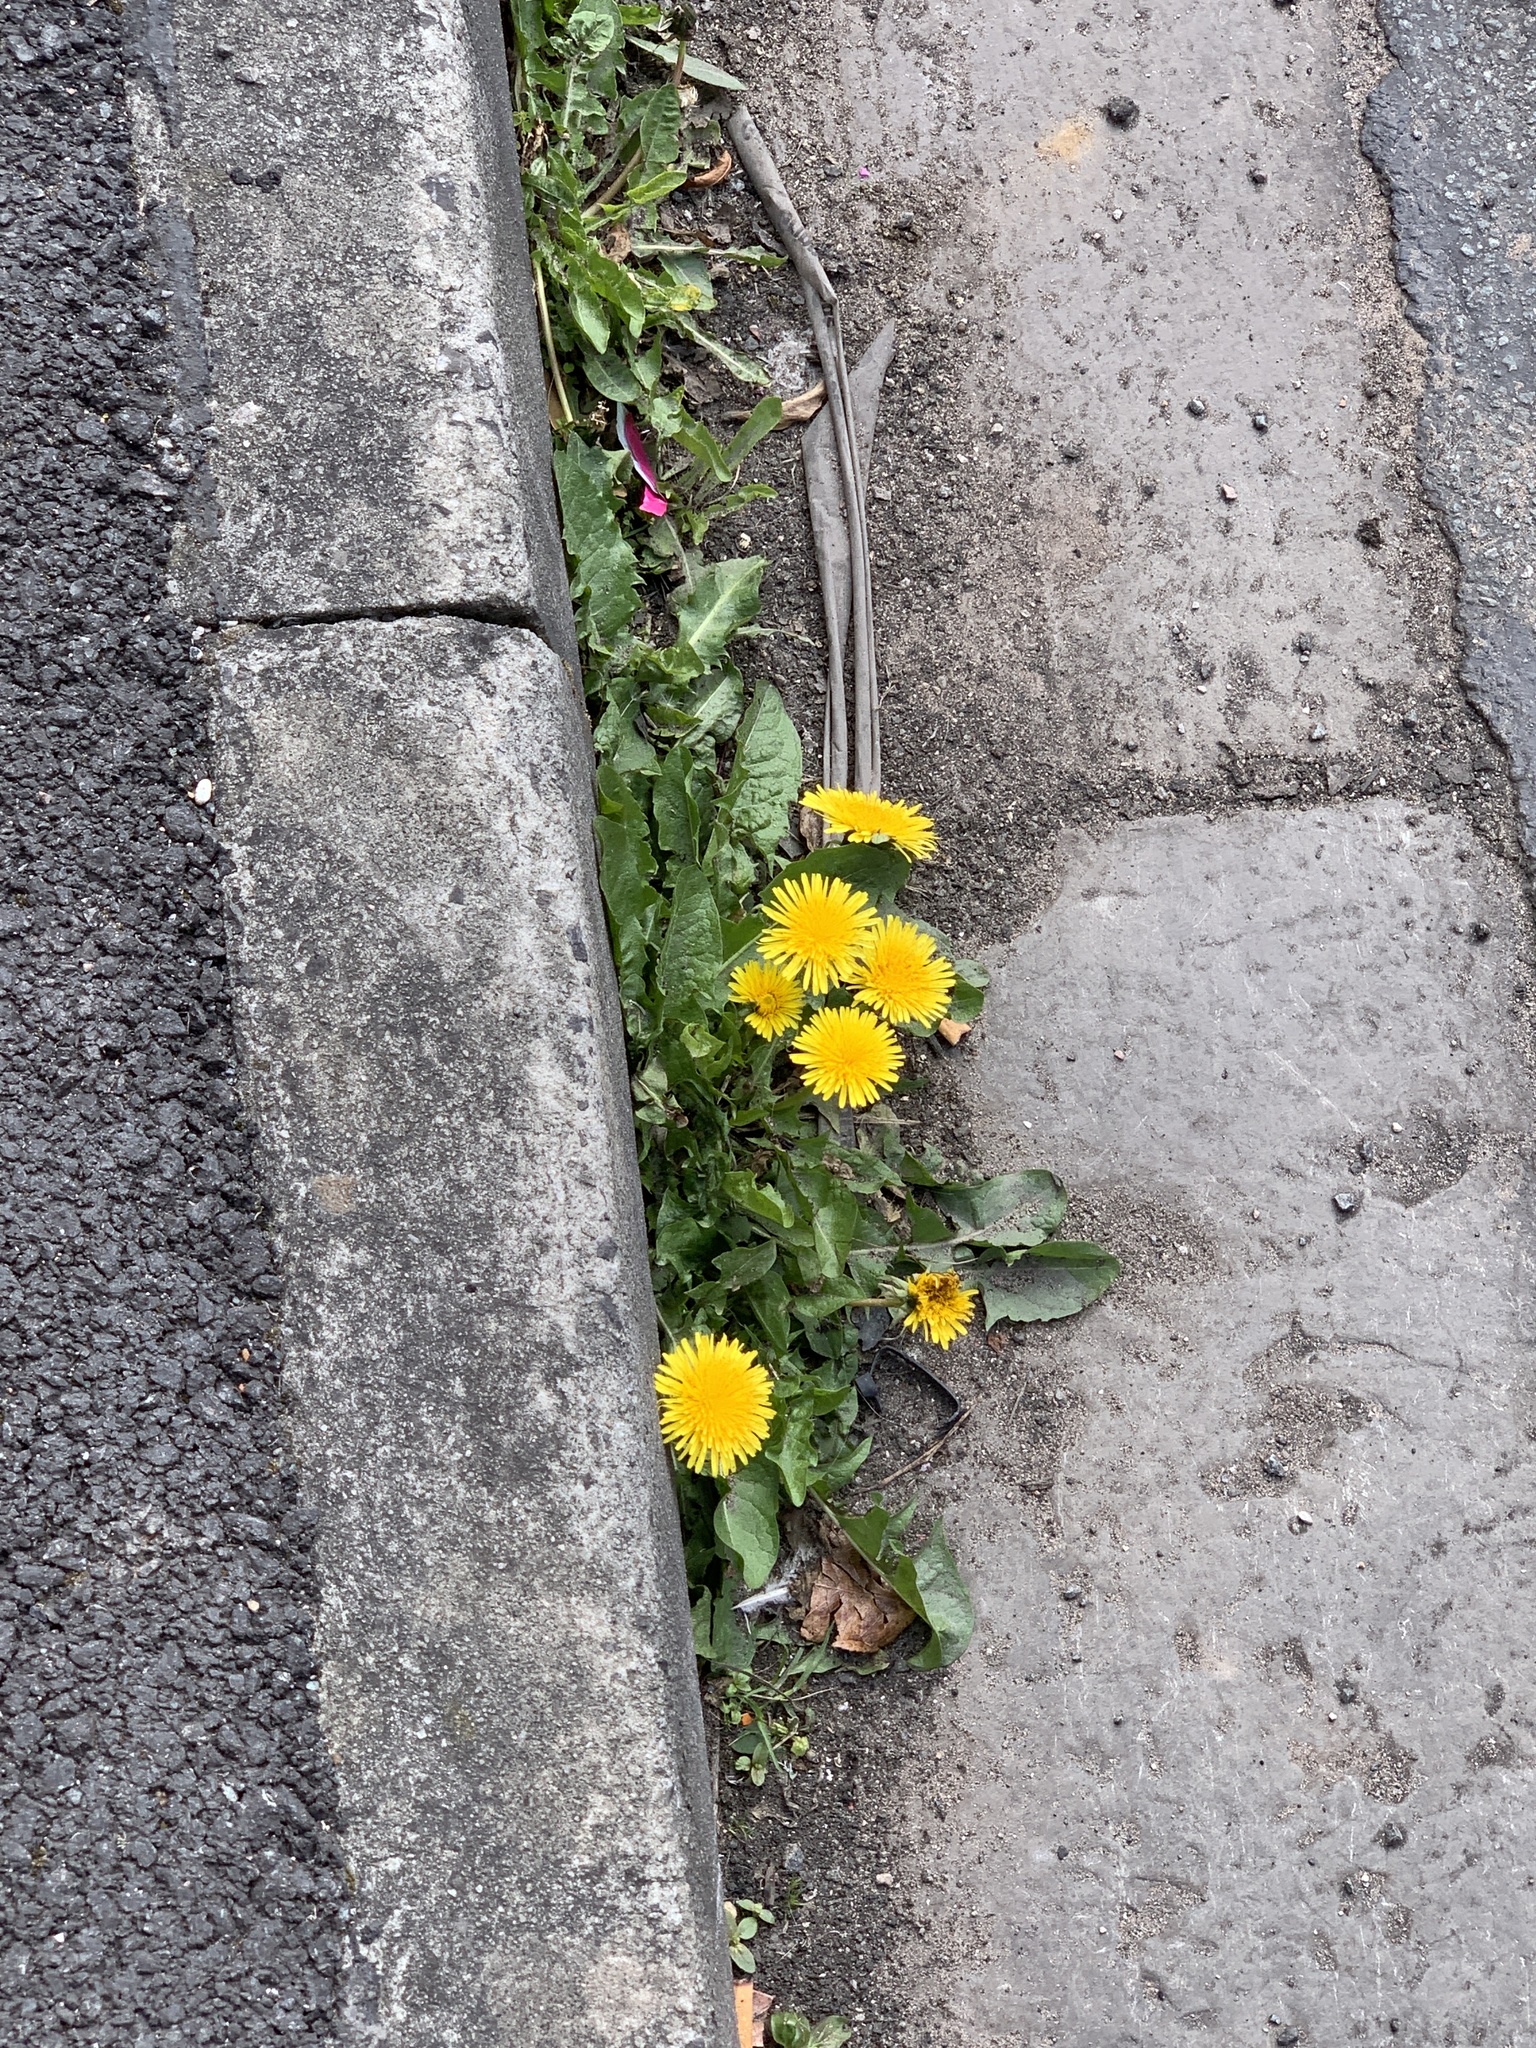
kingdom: Plantae
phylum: Tracheophyta
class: Magnoliopsida
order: Asterales
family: Asteraceae
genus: Taraxacum
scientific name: Taraxacum officinale
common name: Common dandelion
